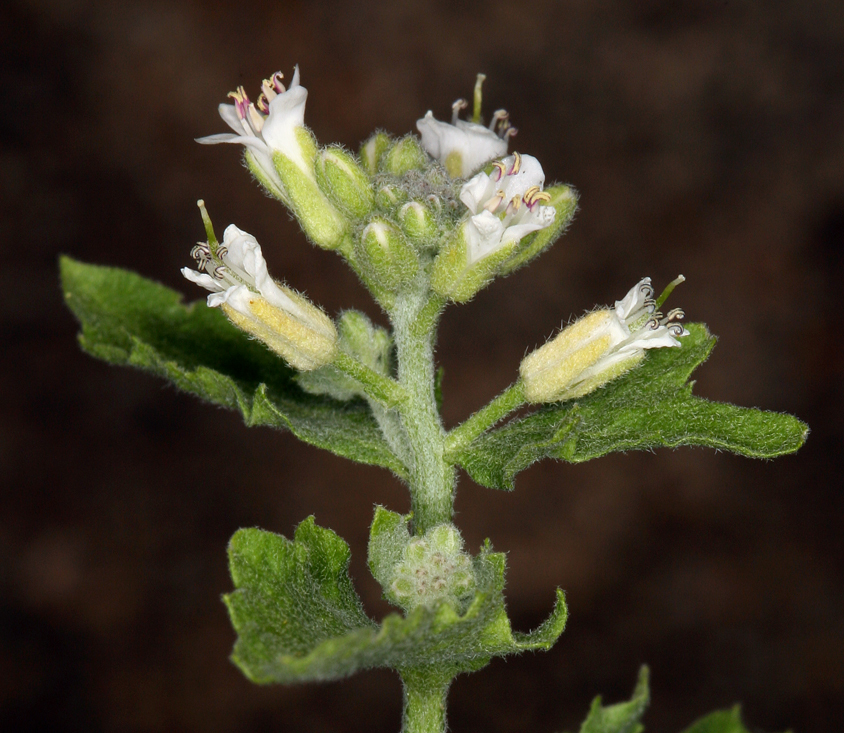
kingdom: Plantae
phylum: Tracheophyta
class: Magnoliopsida
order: Brassicales
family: Brassicaceae
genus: Halimolobos
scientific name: Halimolobos jaegeri
